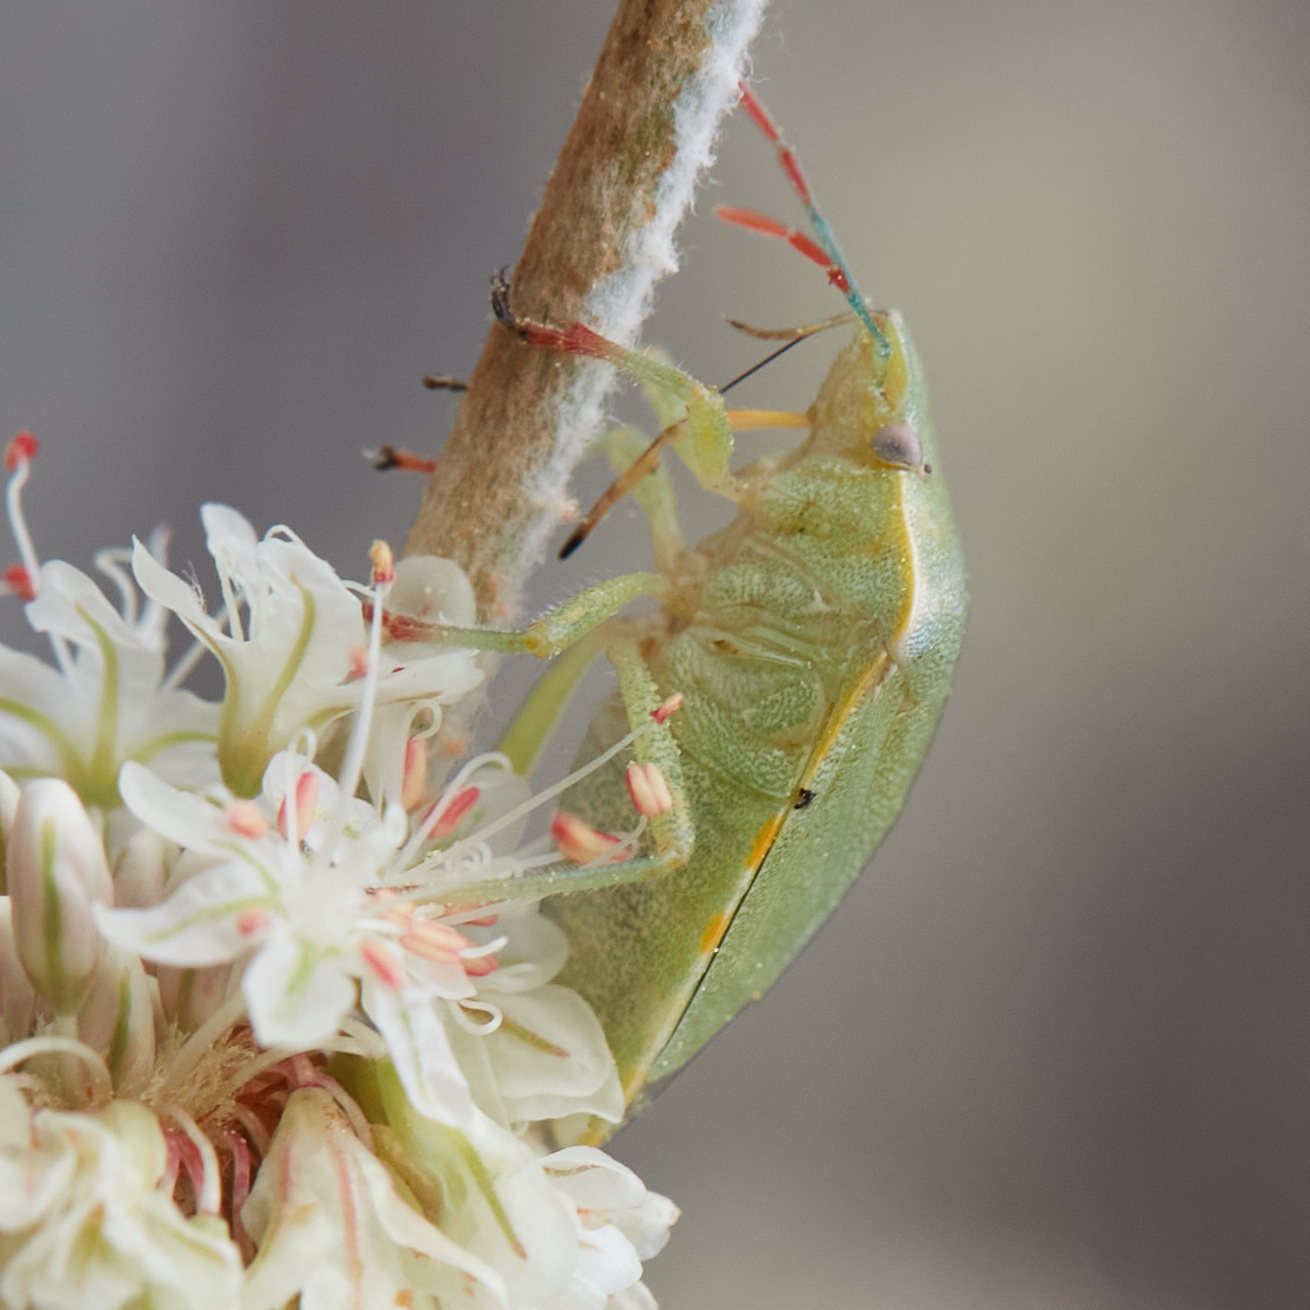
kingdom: Animalia
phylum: Arthropoda
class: Insecta
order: Hemiptera
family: Pentatomidae
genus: Thyanta
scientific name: Thyanta pallidovirens
